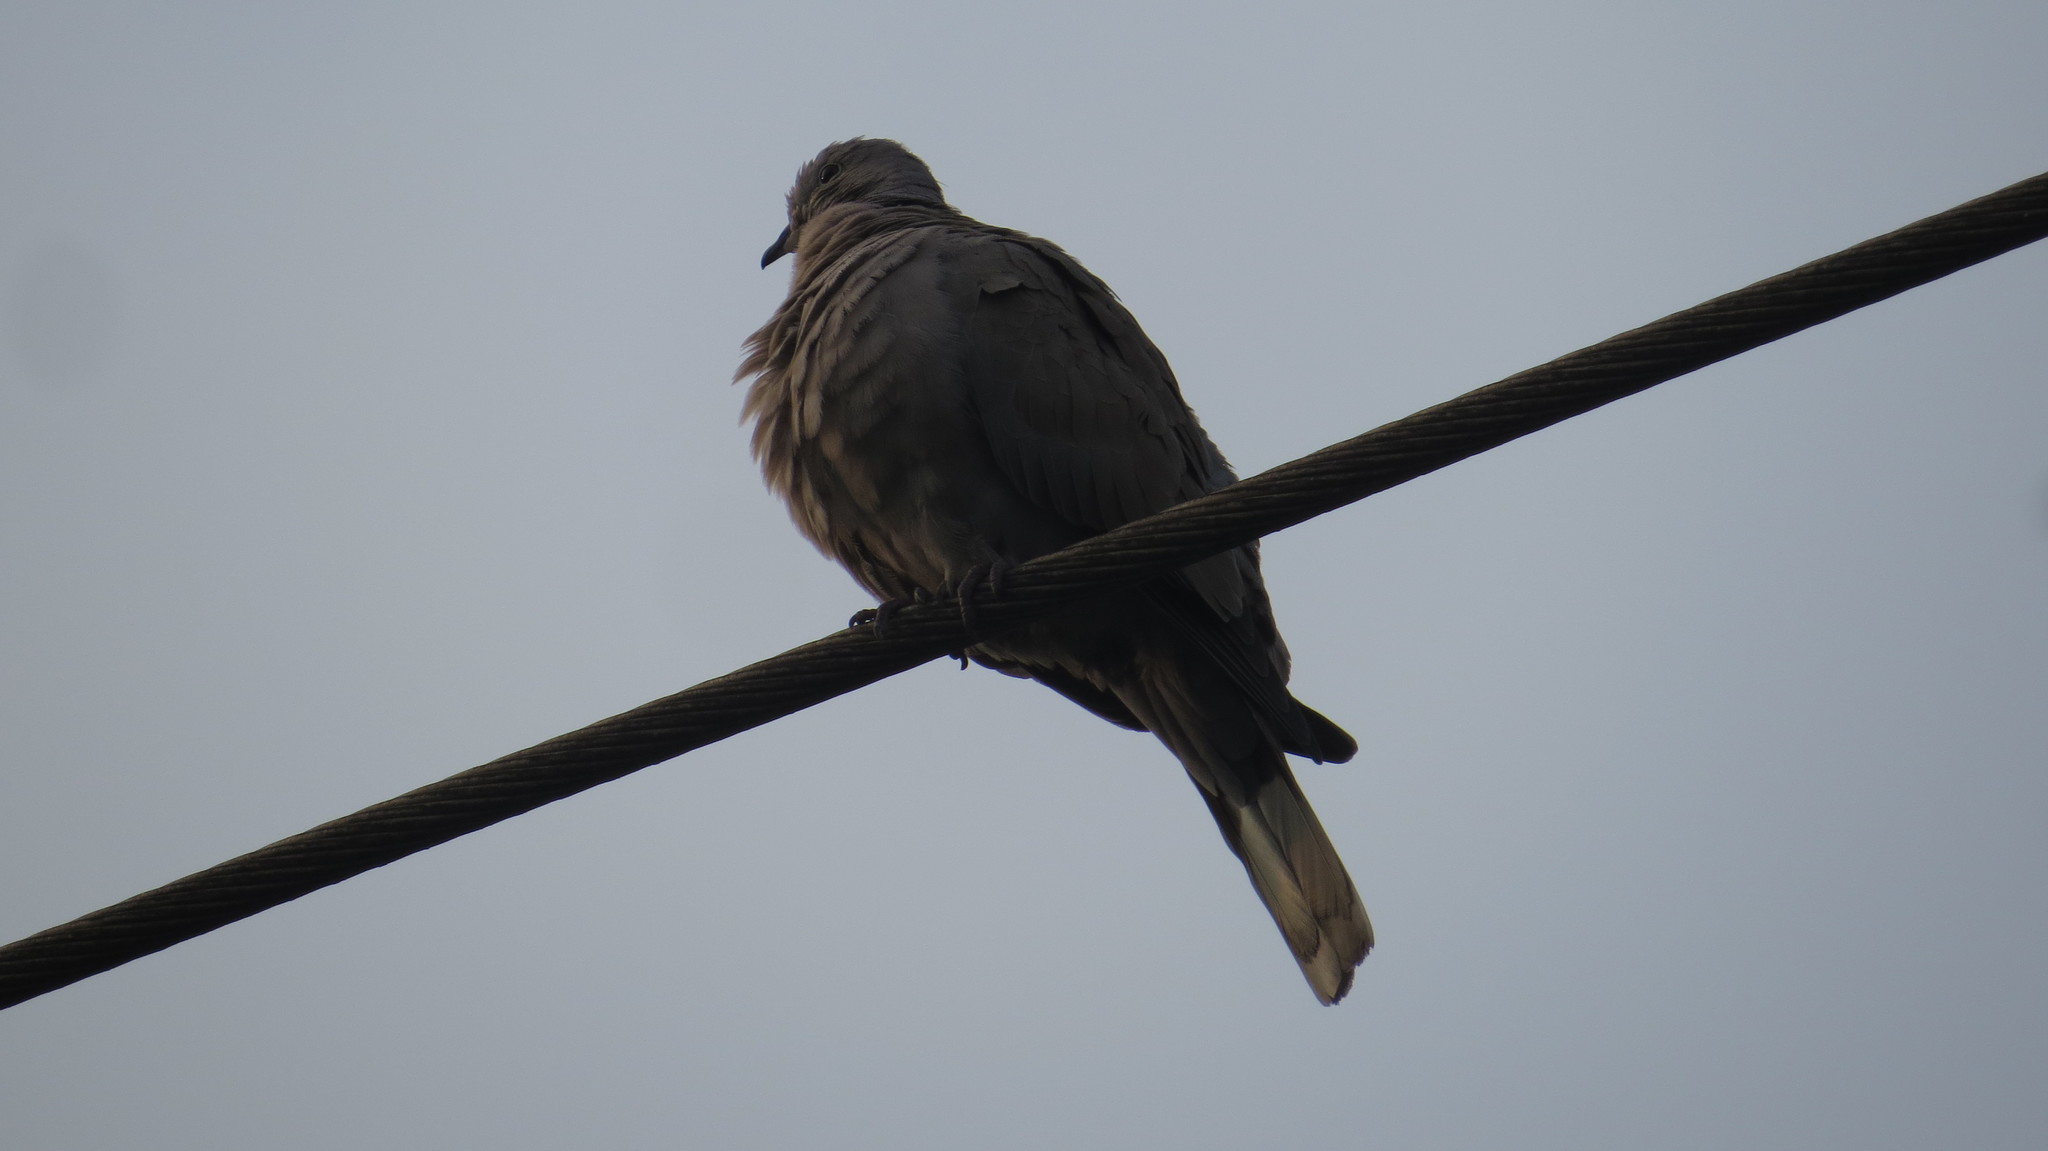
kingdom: Animalia
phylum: Chordata
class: Aves
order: Columbiformes
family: Columbidae
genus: Streptopelia
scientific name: Streptopelia decaocto
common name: Eurasian collared dove
